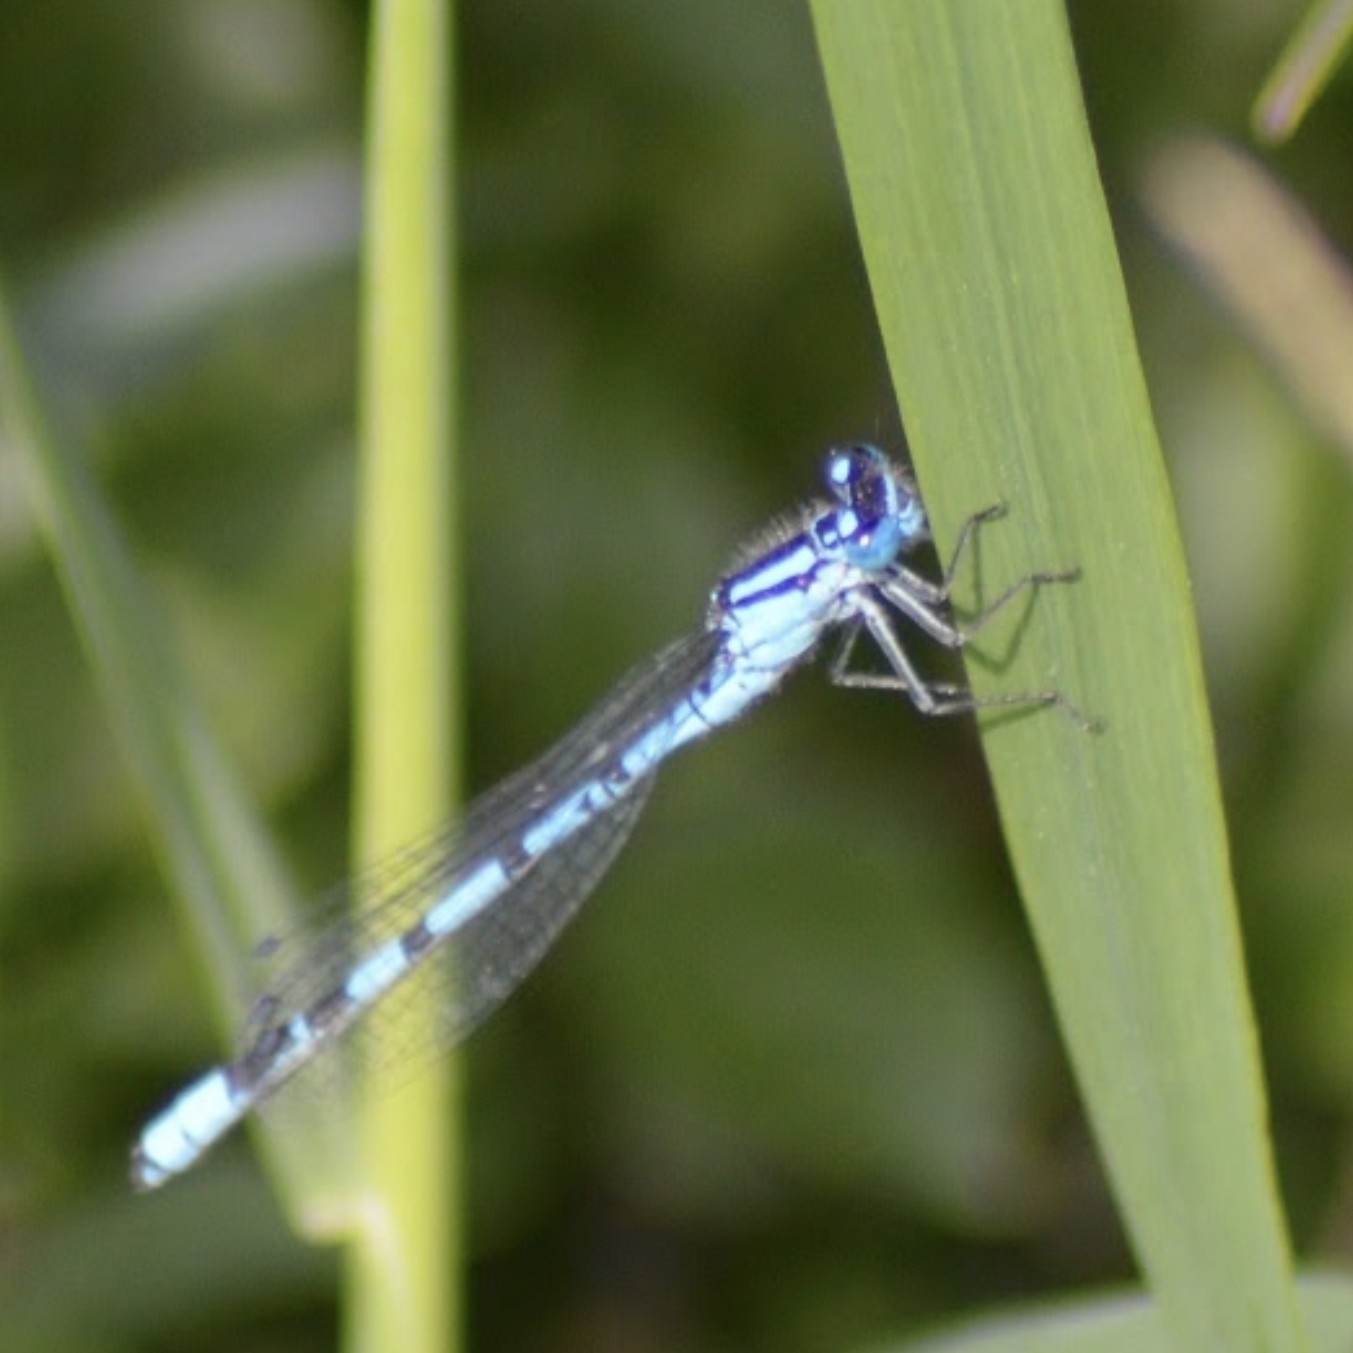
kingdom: Animalia
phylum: Arthropoda
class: Insecta
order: Odonata
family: Coenagrionidae
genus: Enallagma
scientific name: Enallagma cyathigerum
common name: Common blue damselfly
